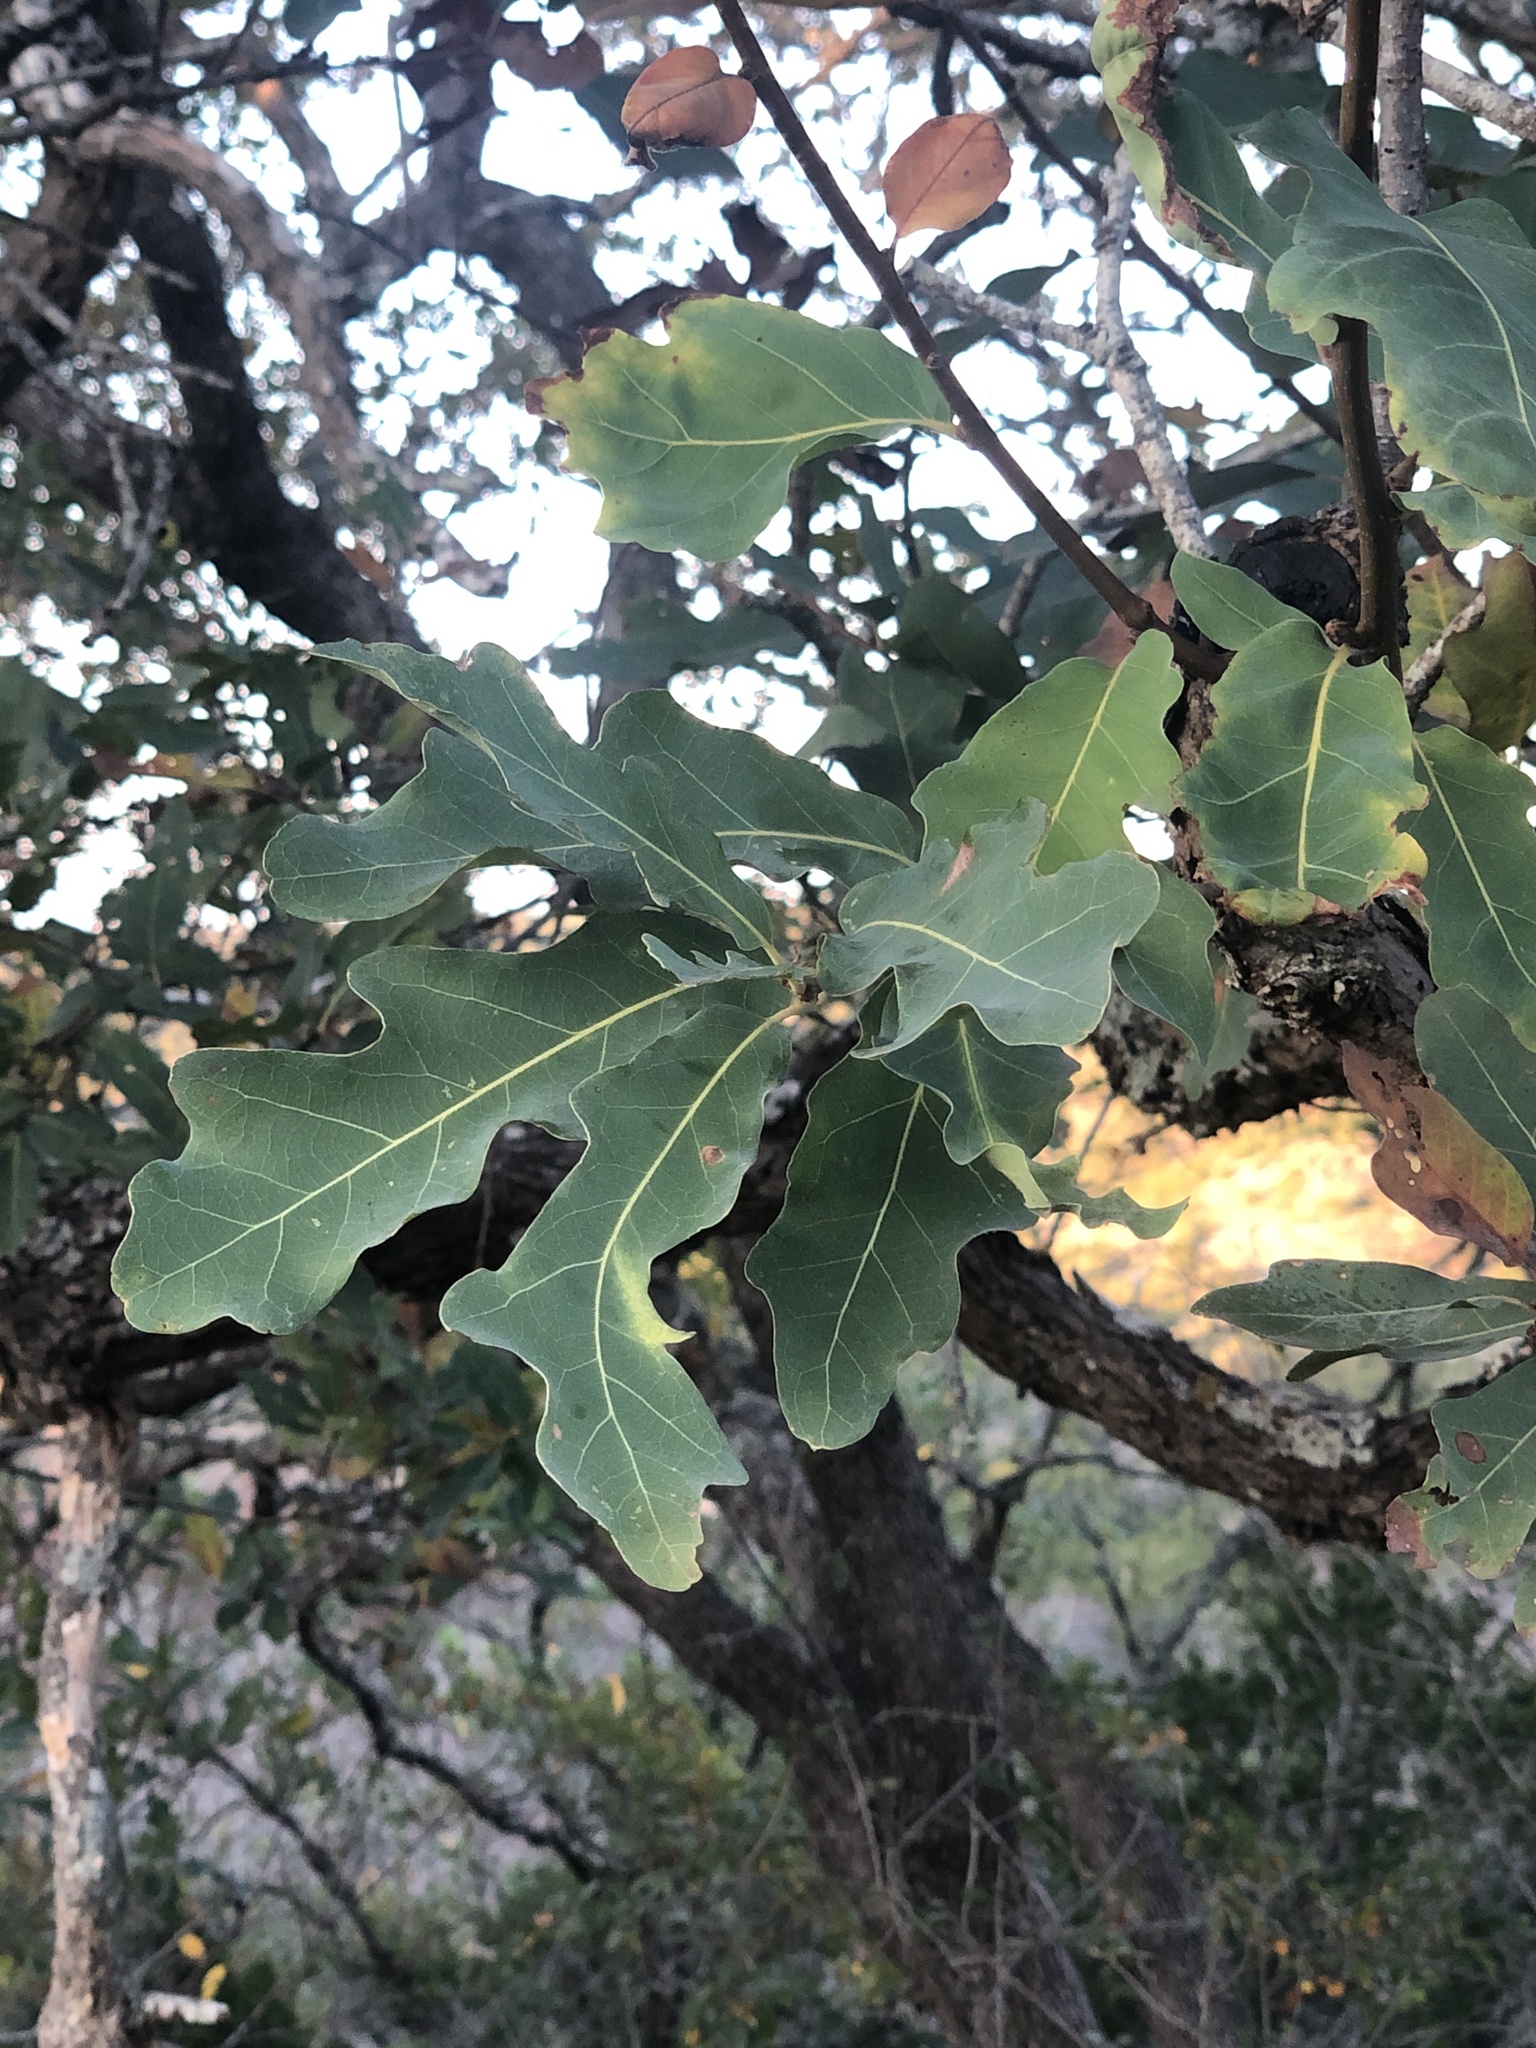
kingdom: Plantae
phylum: Tracheophyta
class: Magnoliopsida
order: Fagales
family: Fagaceae
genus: Quercus
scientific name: Quercus laceyi
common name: Lacey oak
